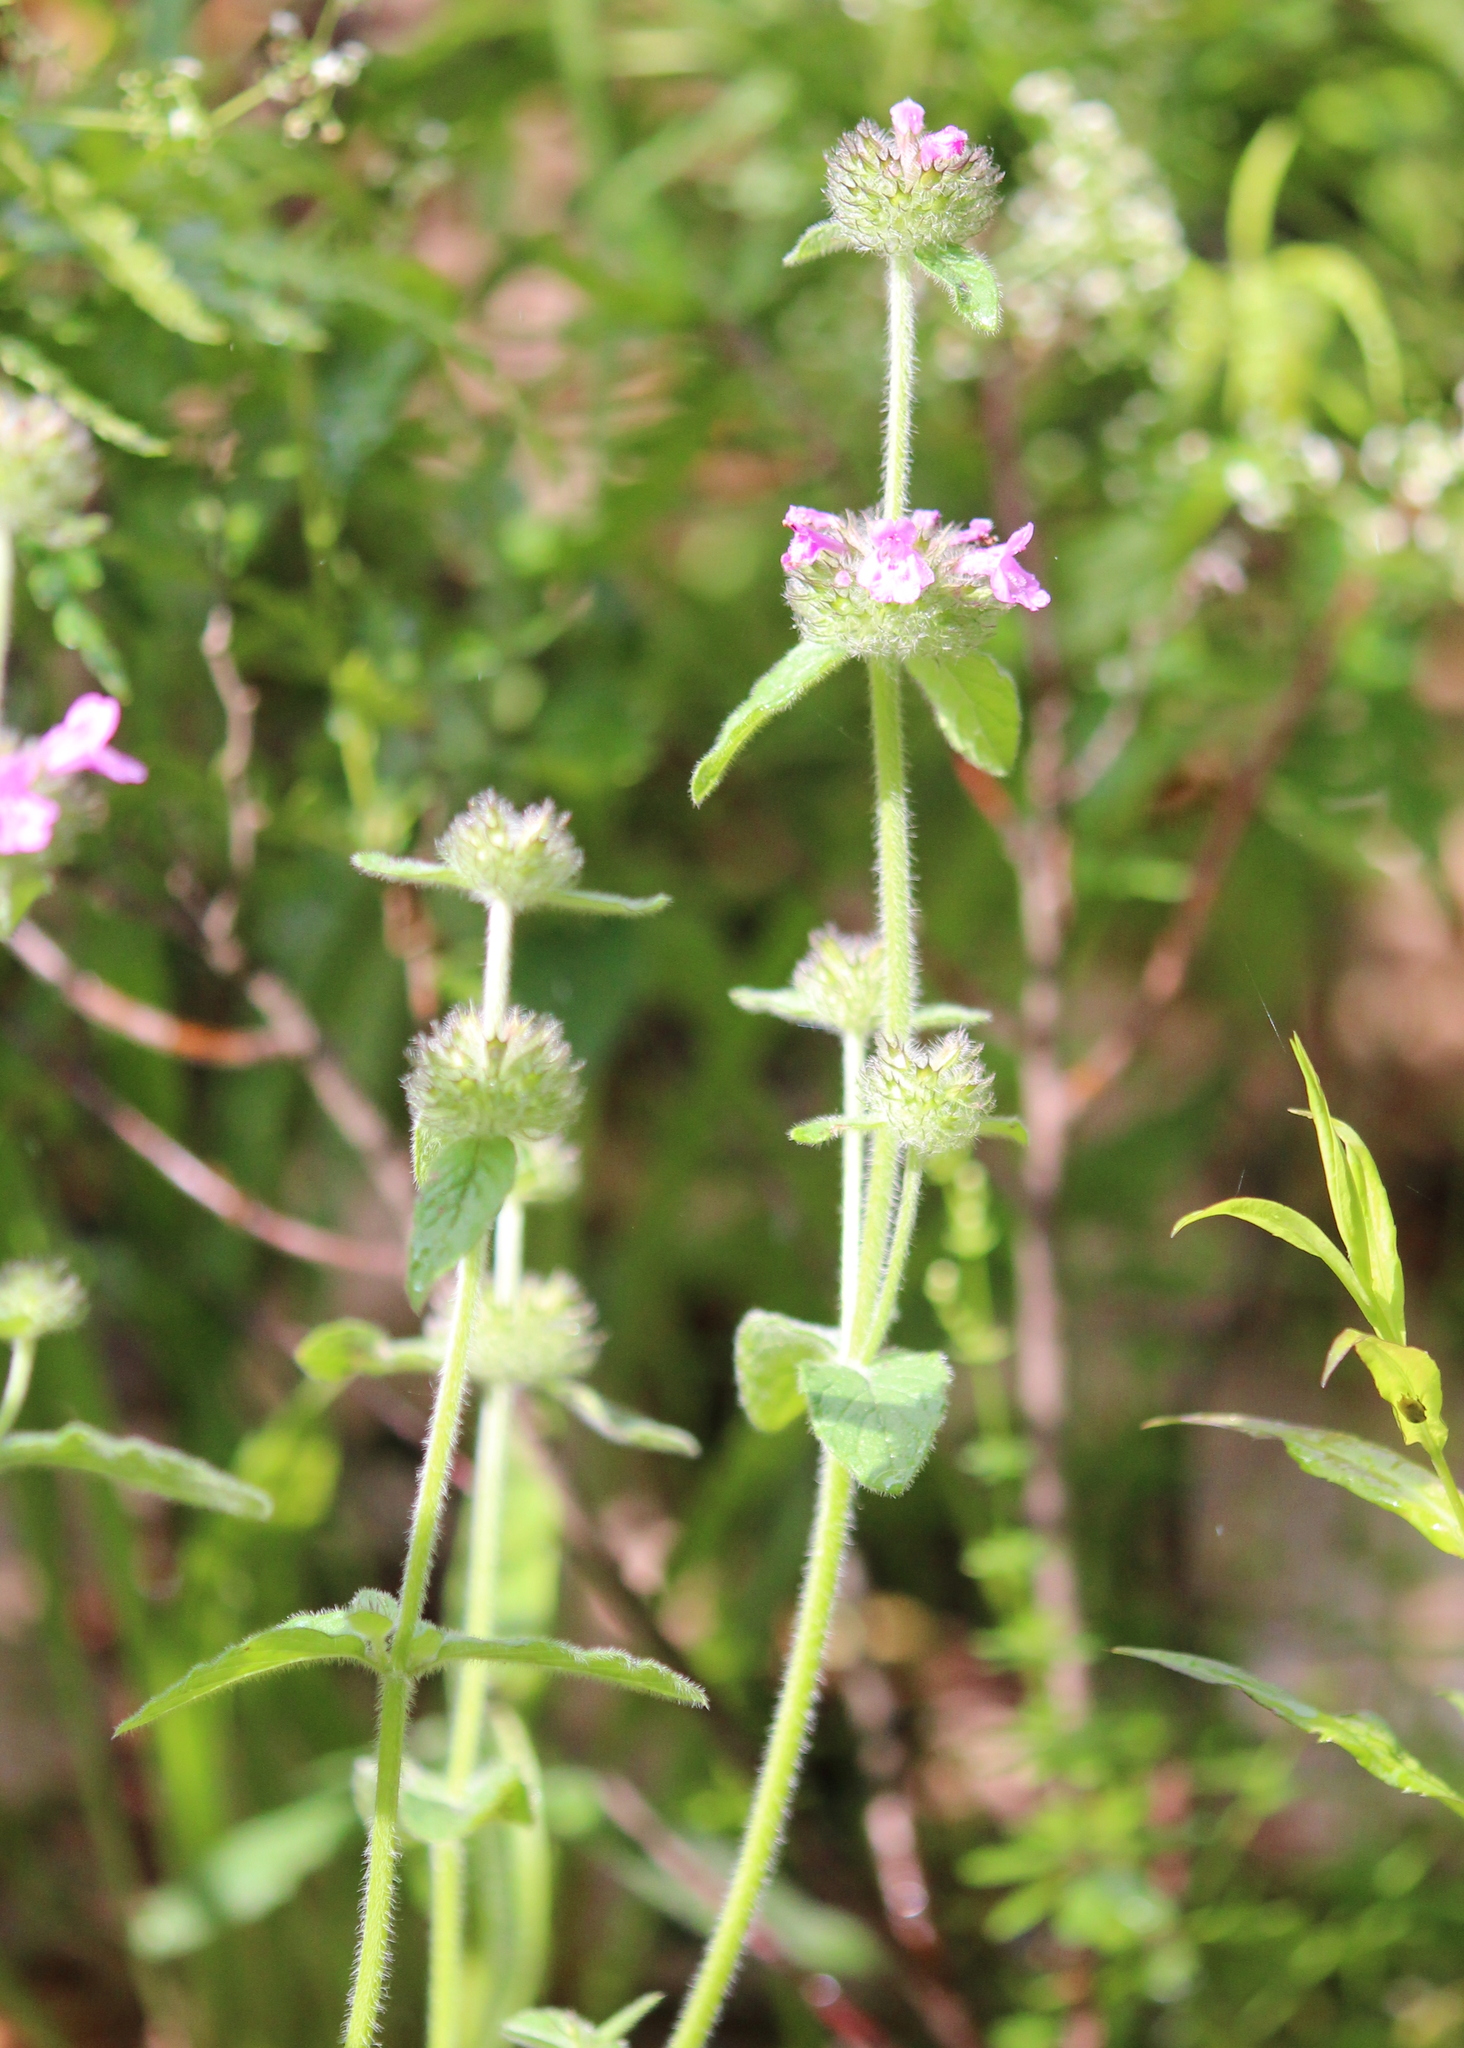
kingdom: Plantae
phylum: Tracheophyta
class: Magnoliopsida
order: Lamiales
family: Lamiaceae
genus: Clinopodium
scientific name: Clinopodium vulgare
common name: Wild basil
